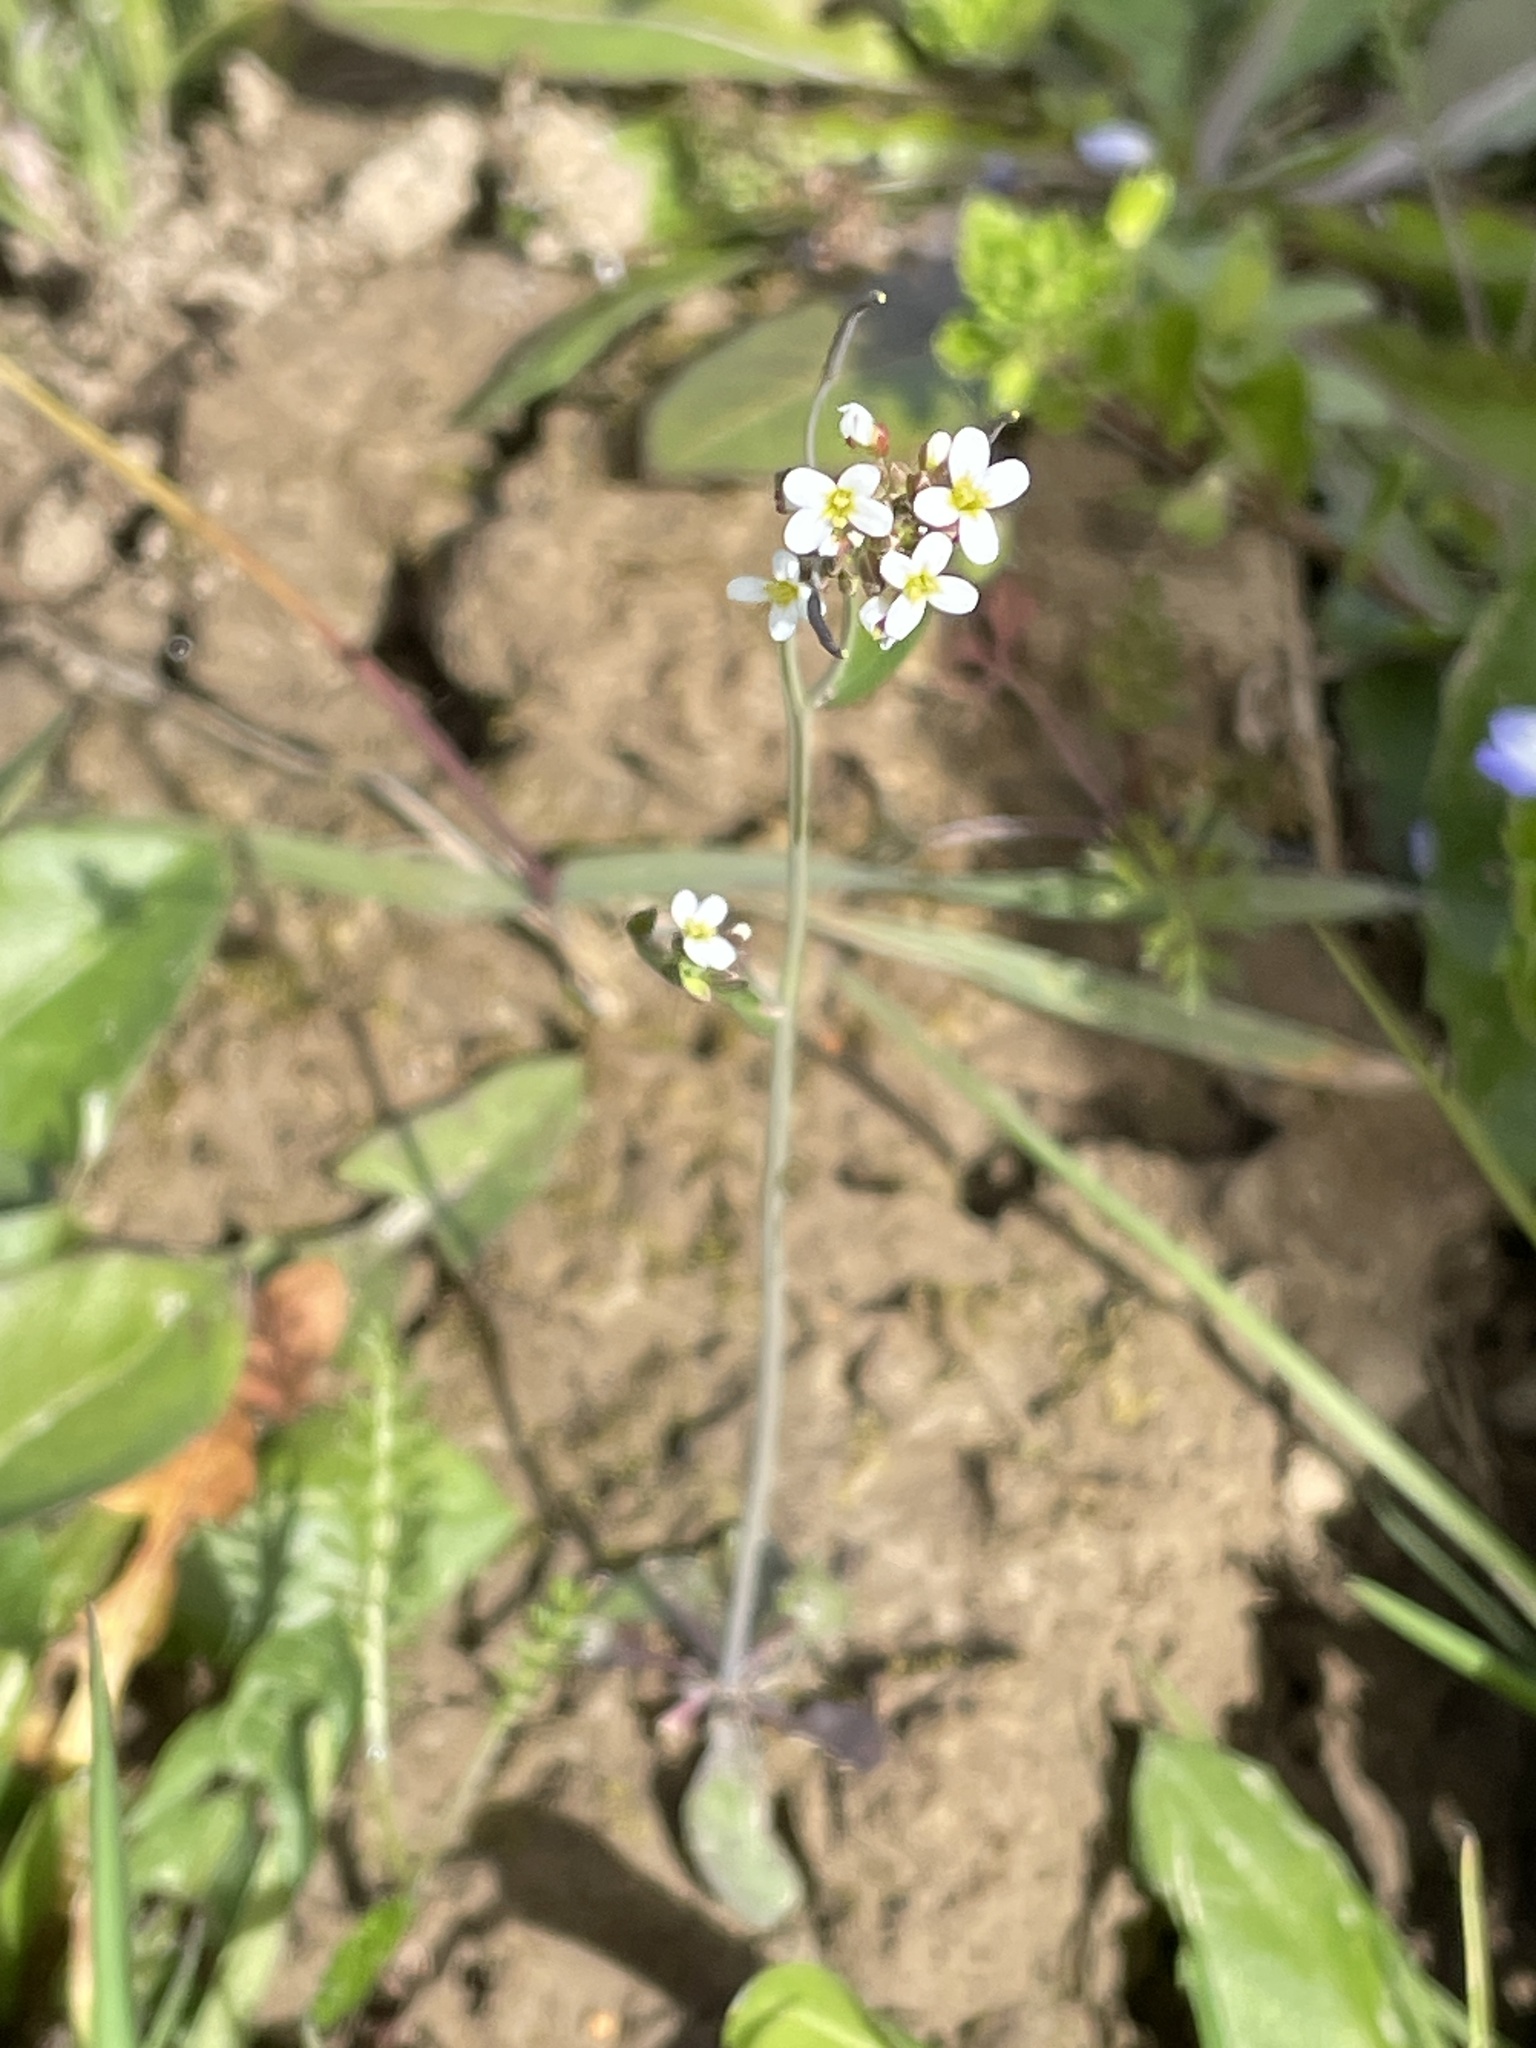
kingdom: Plantae
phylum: Tracheophyta
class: Magnoliopsida
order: Brassicales
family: Brassicaceae
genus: Arabidopsis
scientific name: Arabidopsis thaliana
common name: Thale cress
